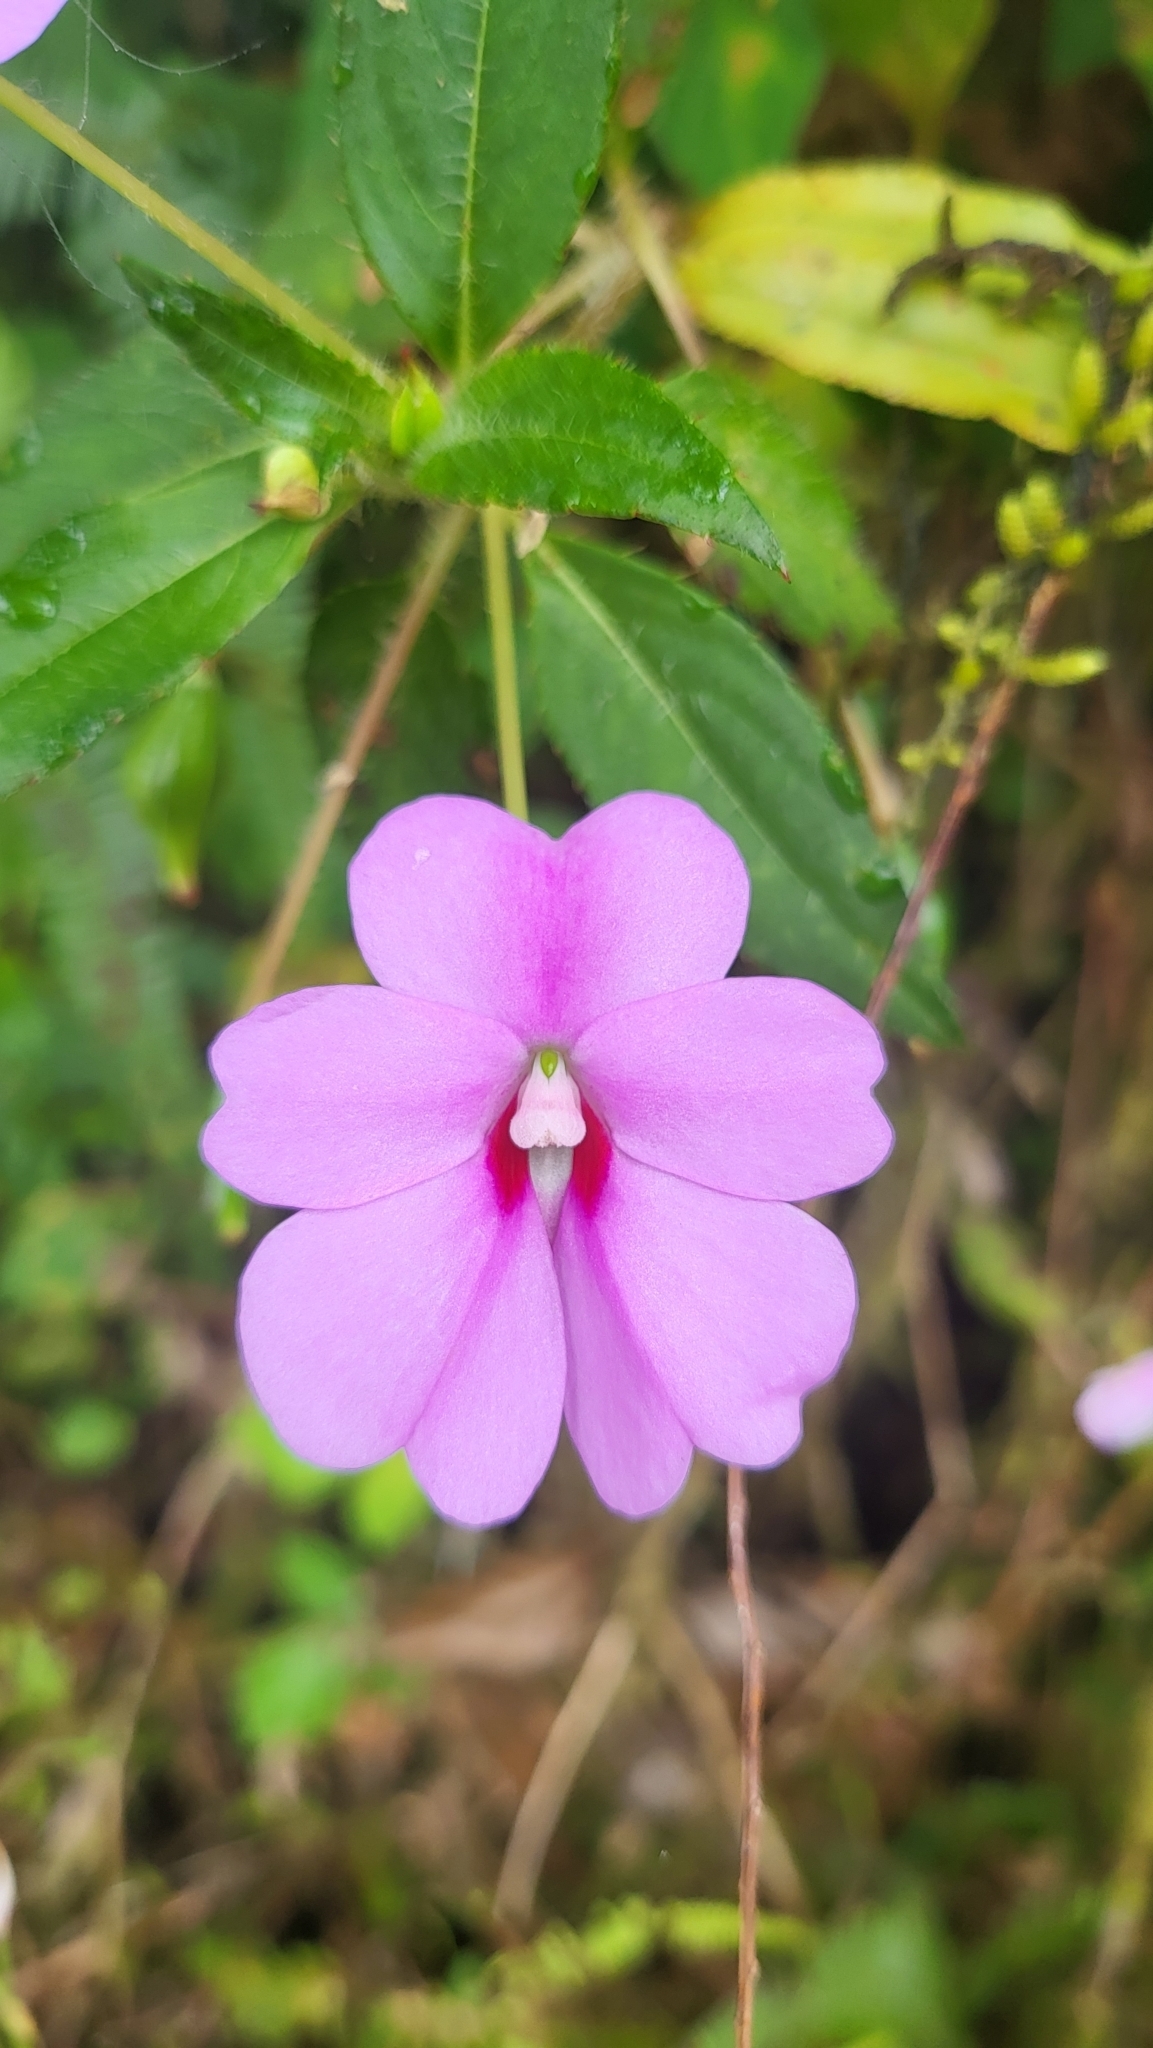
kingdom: Plantae
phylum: Tracheophyta
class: Magnoliopsida
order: Ericales
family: Balsaminaceae
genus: Impatiens
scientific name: Impatiens platypetala
